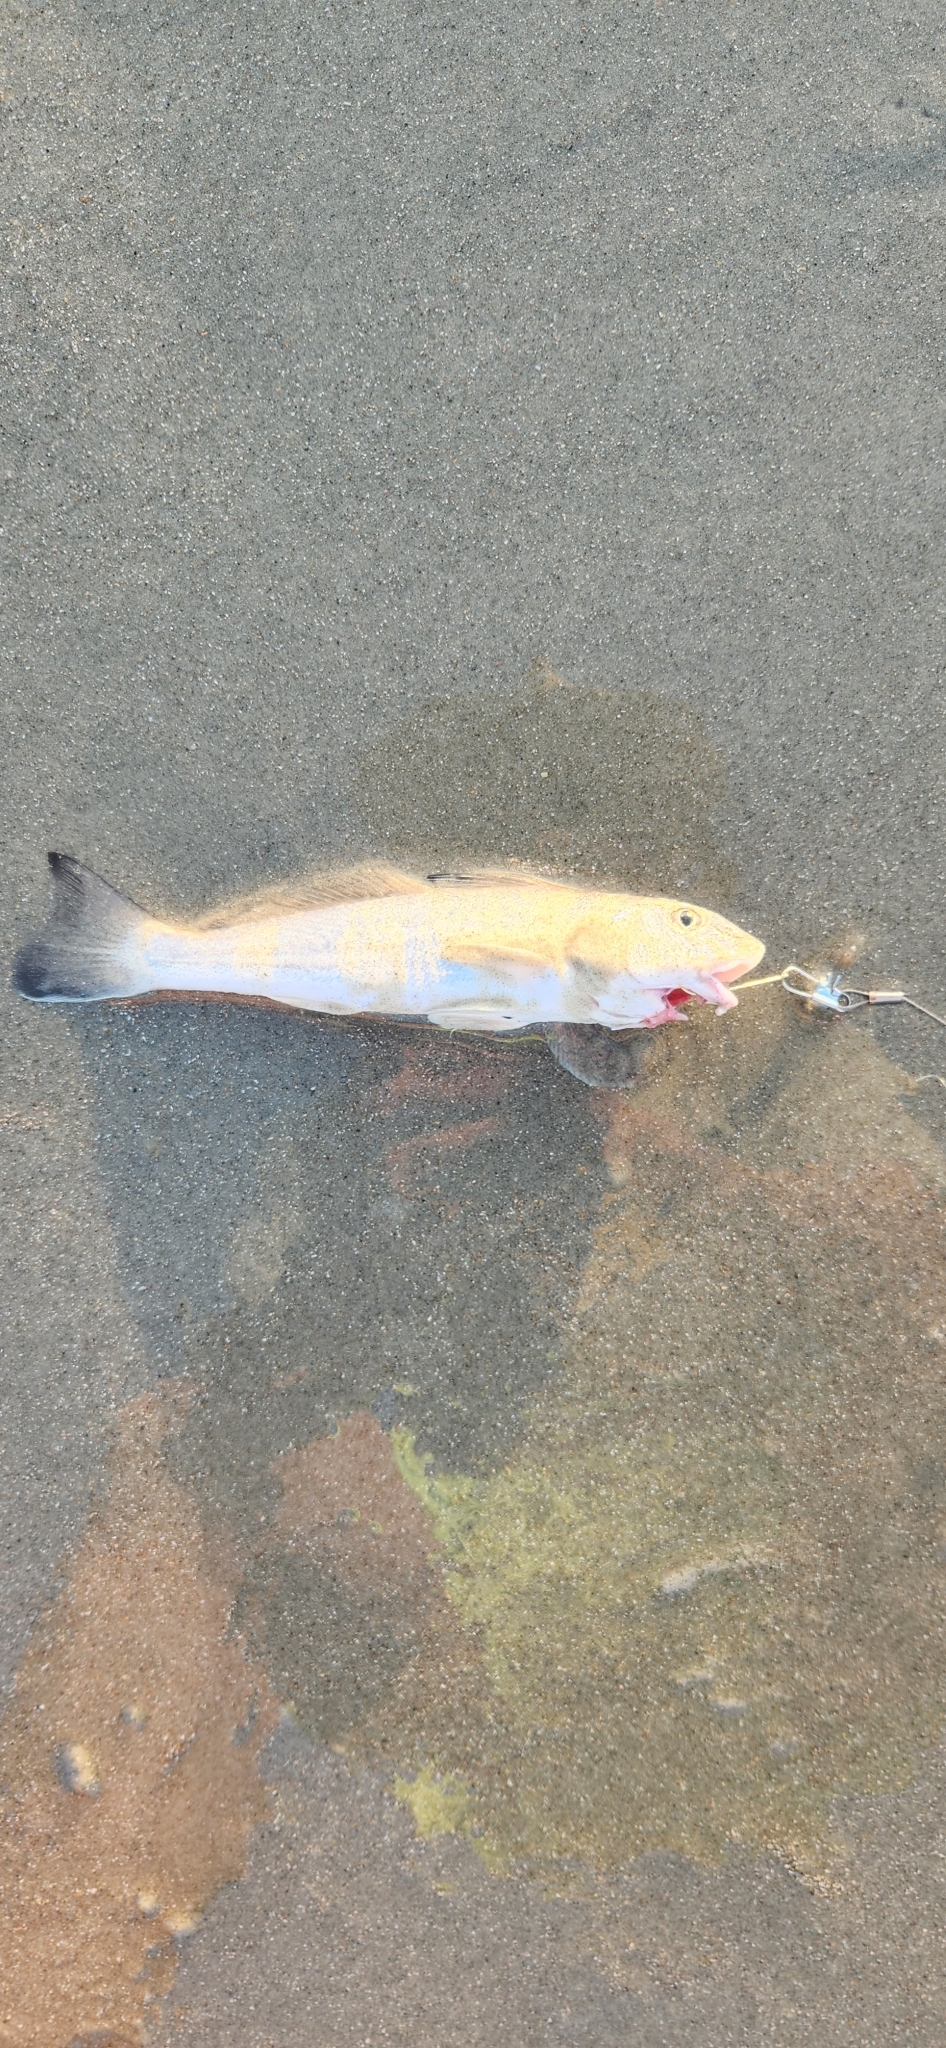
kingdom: Animalia
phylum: Chordata
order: Perciformes
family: Sciaenidae
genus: Menticirrhus
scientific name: Menticirrhus littoralis
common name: Gulf kingcroaker
